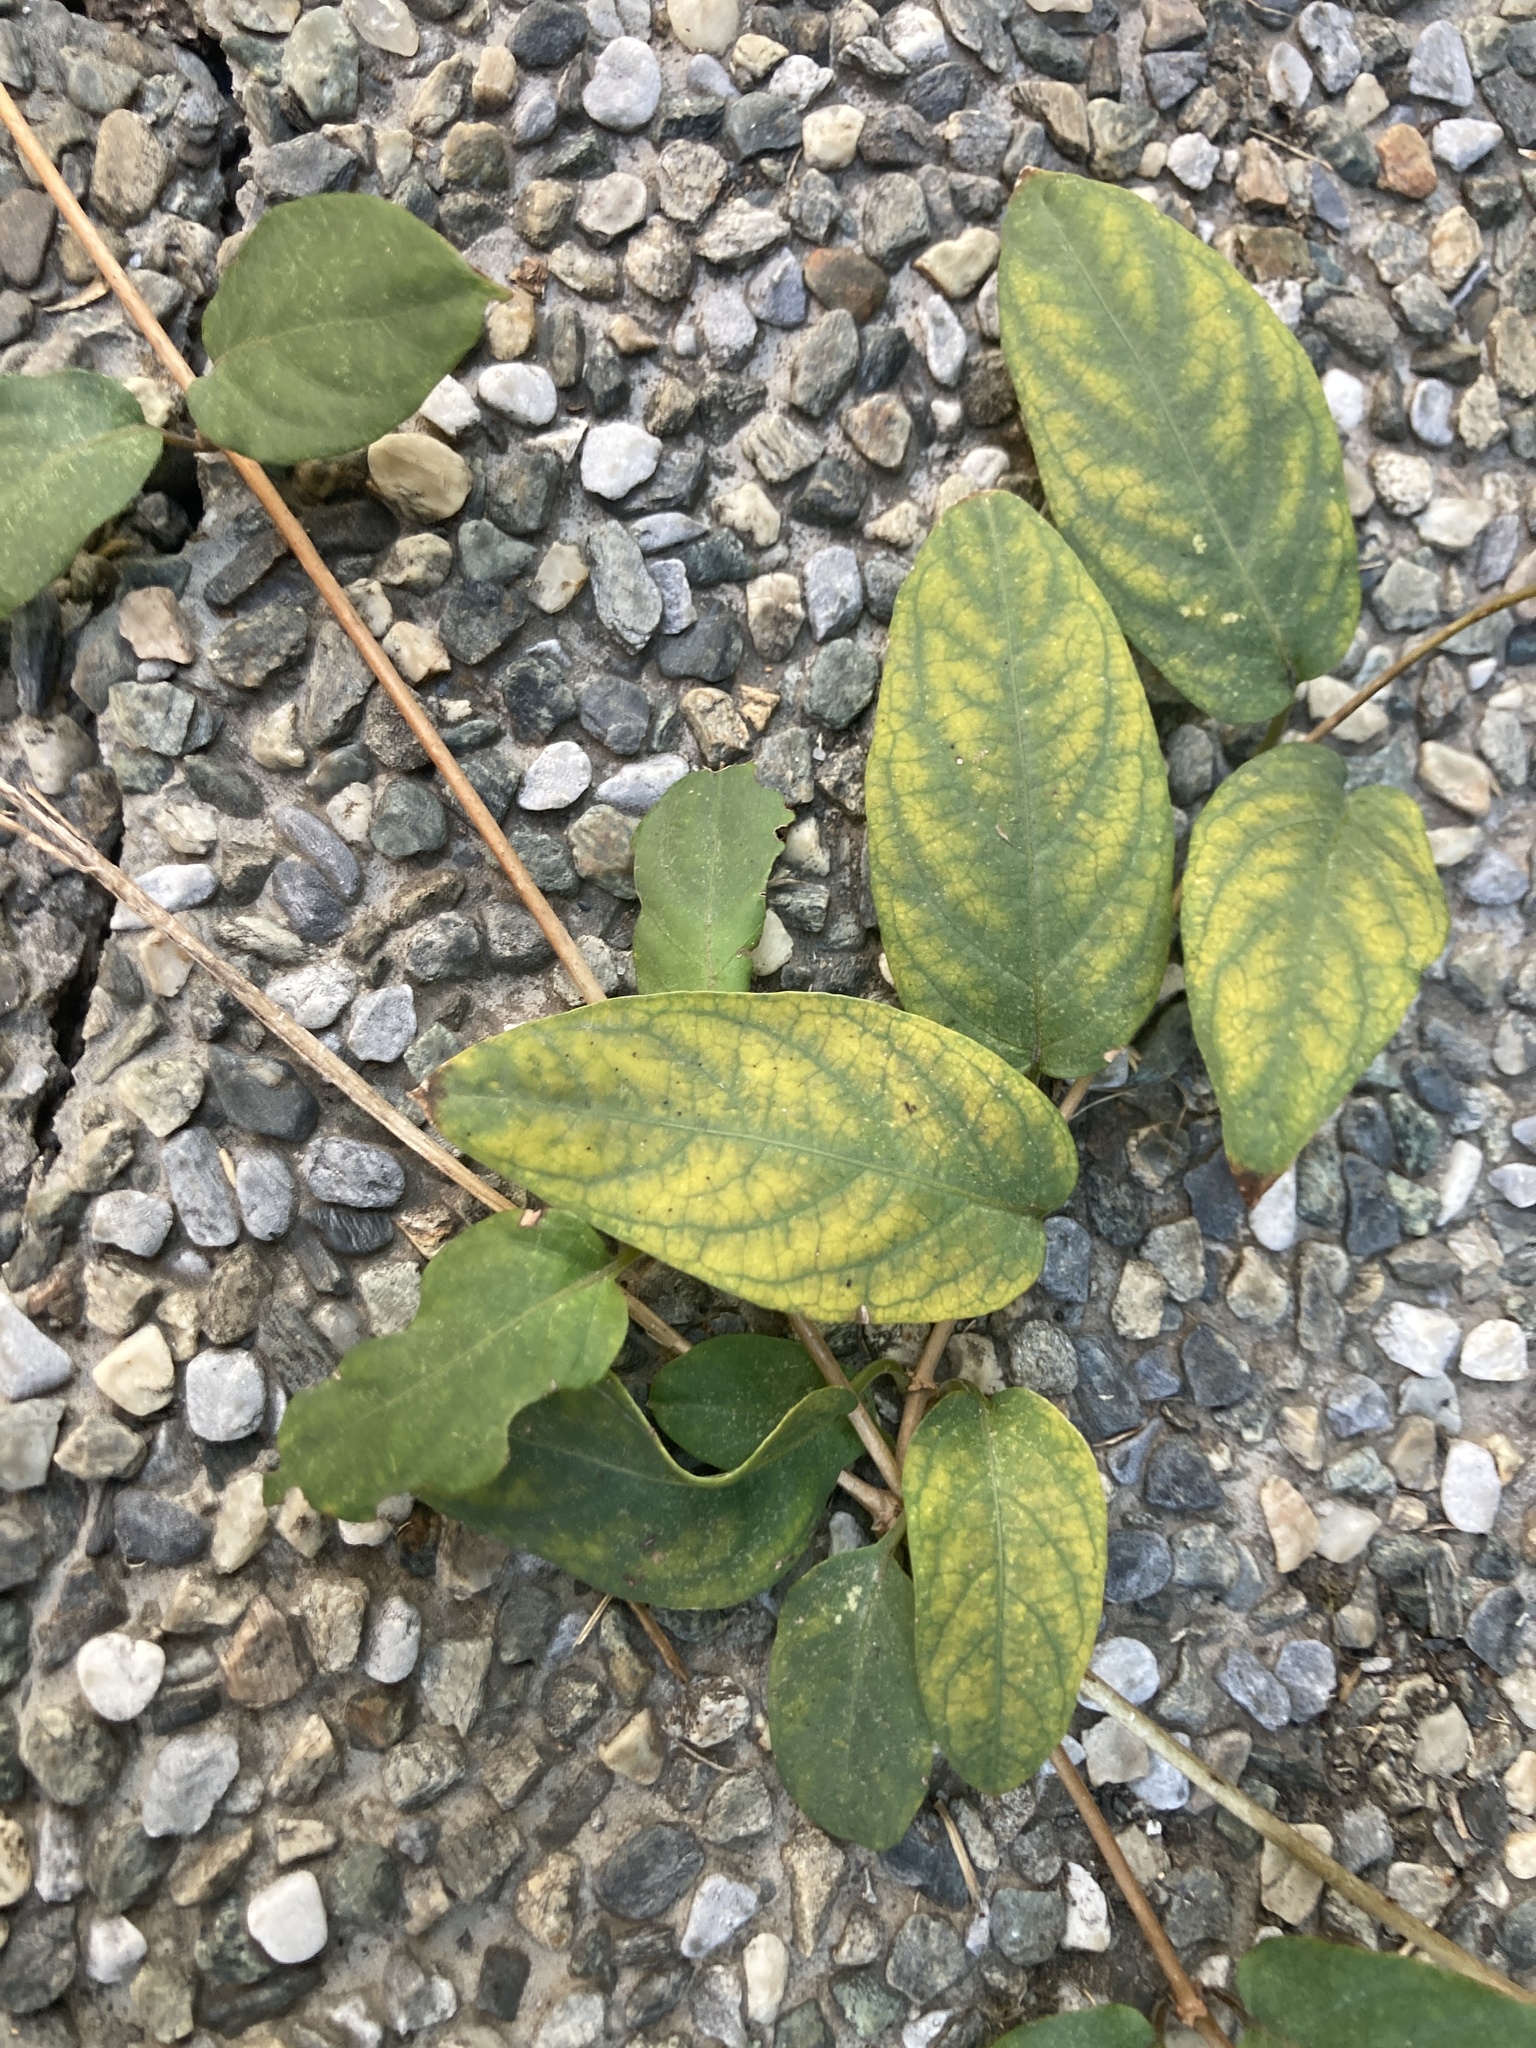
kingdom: Plantae
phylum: Tracheophyta
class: Magnoliopsida
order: Gentianales
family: Rubiaceae
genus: Paederia
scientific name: Paederia foetida
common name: Stinkvine
